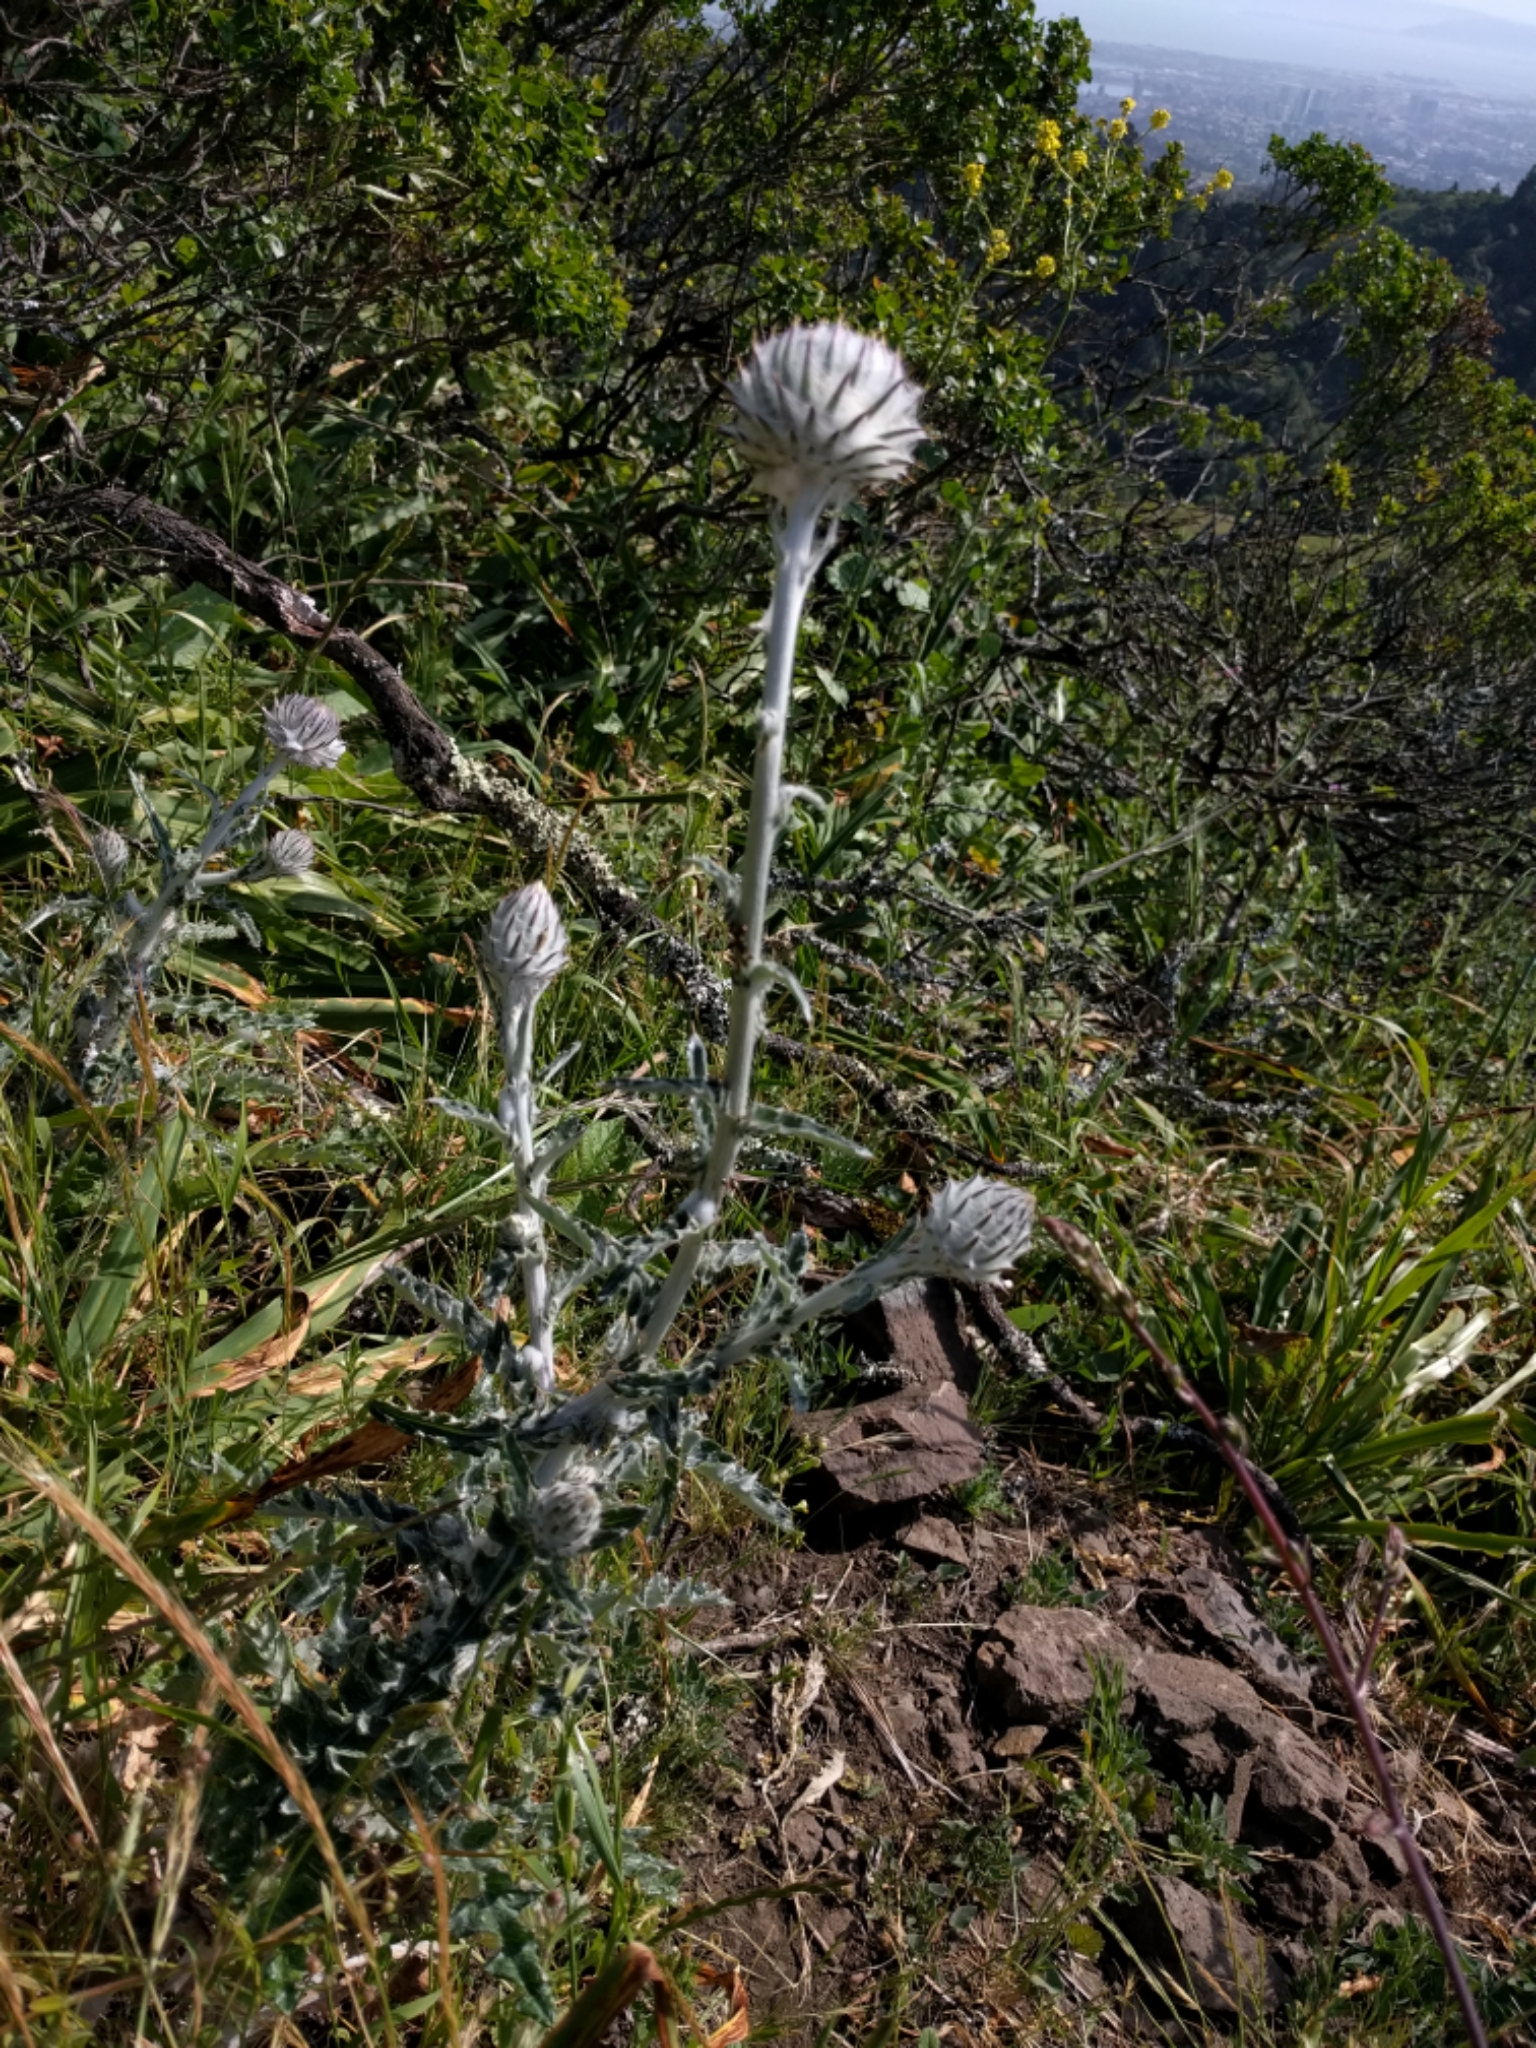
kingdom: Plantae
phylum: Tracheophyta
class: Magnoliopsida
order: Asterales
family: Asteraceae
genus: Cirsium
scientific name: Cirsium occidentale
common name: Western thistle
